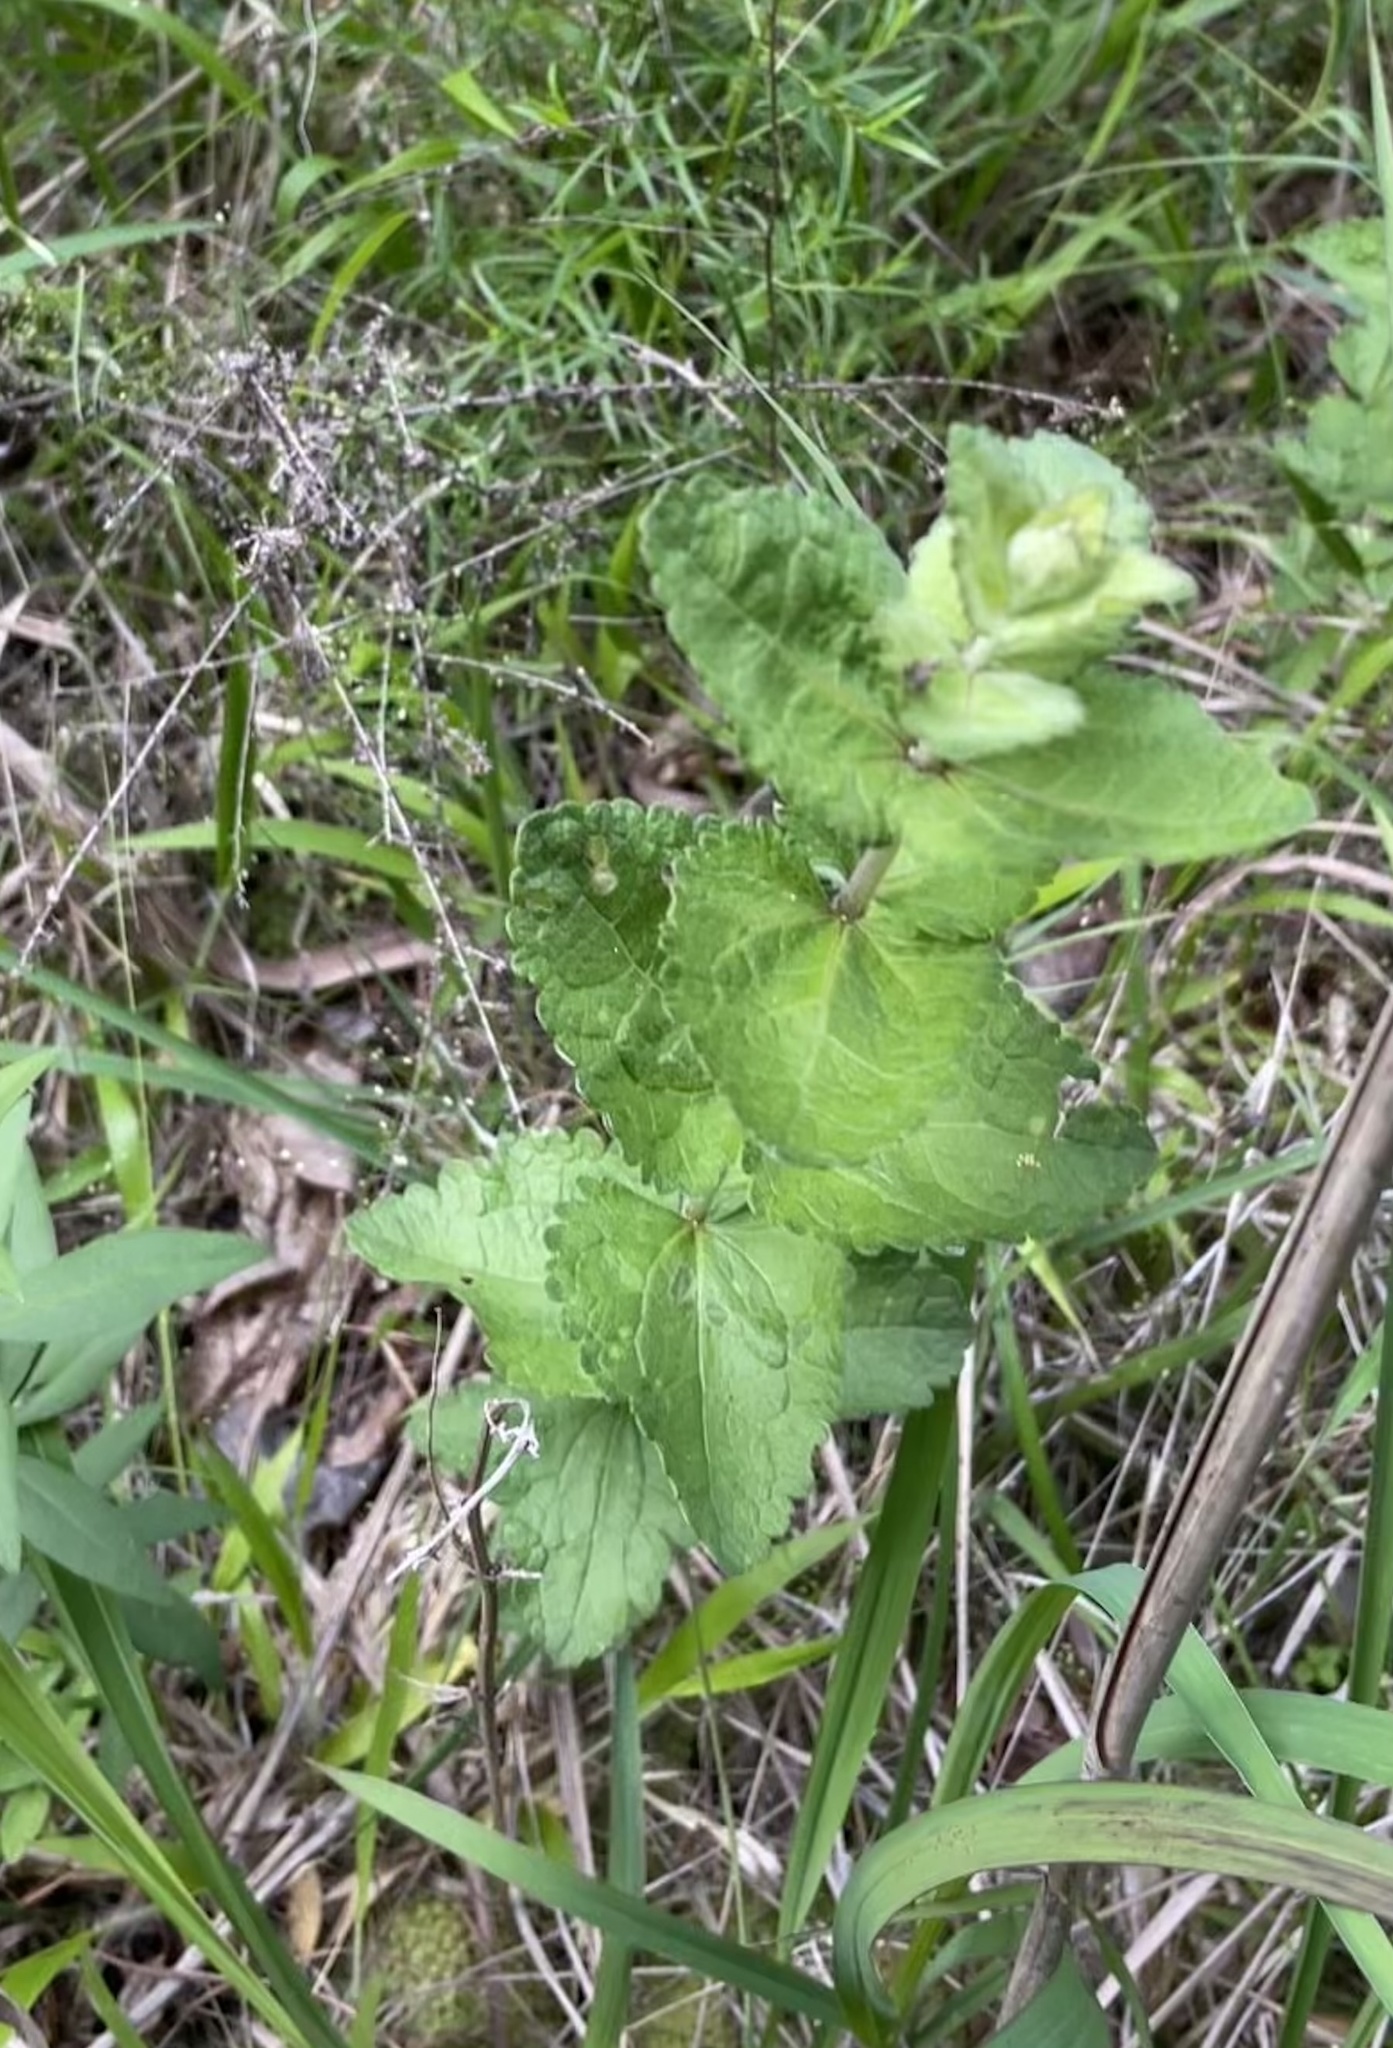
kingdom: Plantae
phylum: Tracheophyta
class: Magnoliopsida
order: Asterales
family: Asteraceae
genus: Eupatorium
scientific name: Eupatorium rotundifolium
